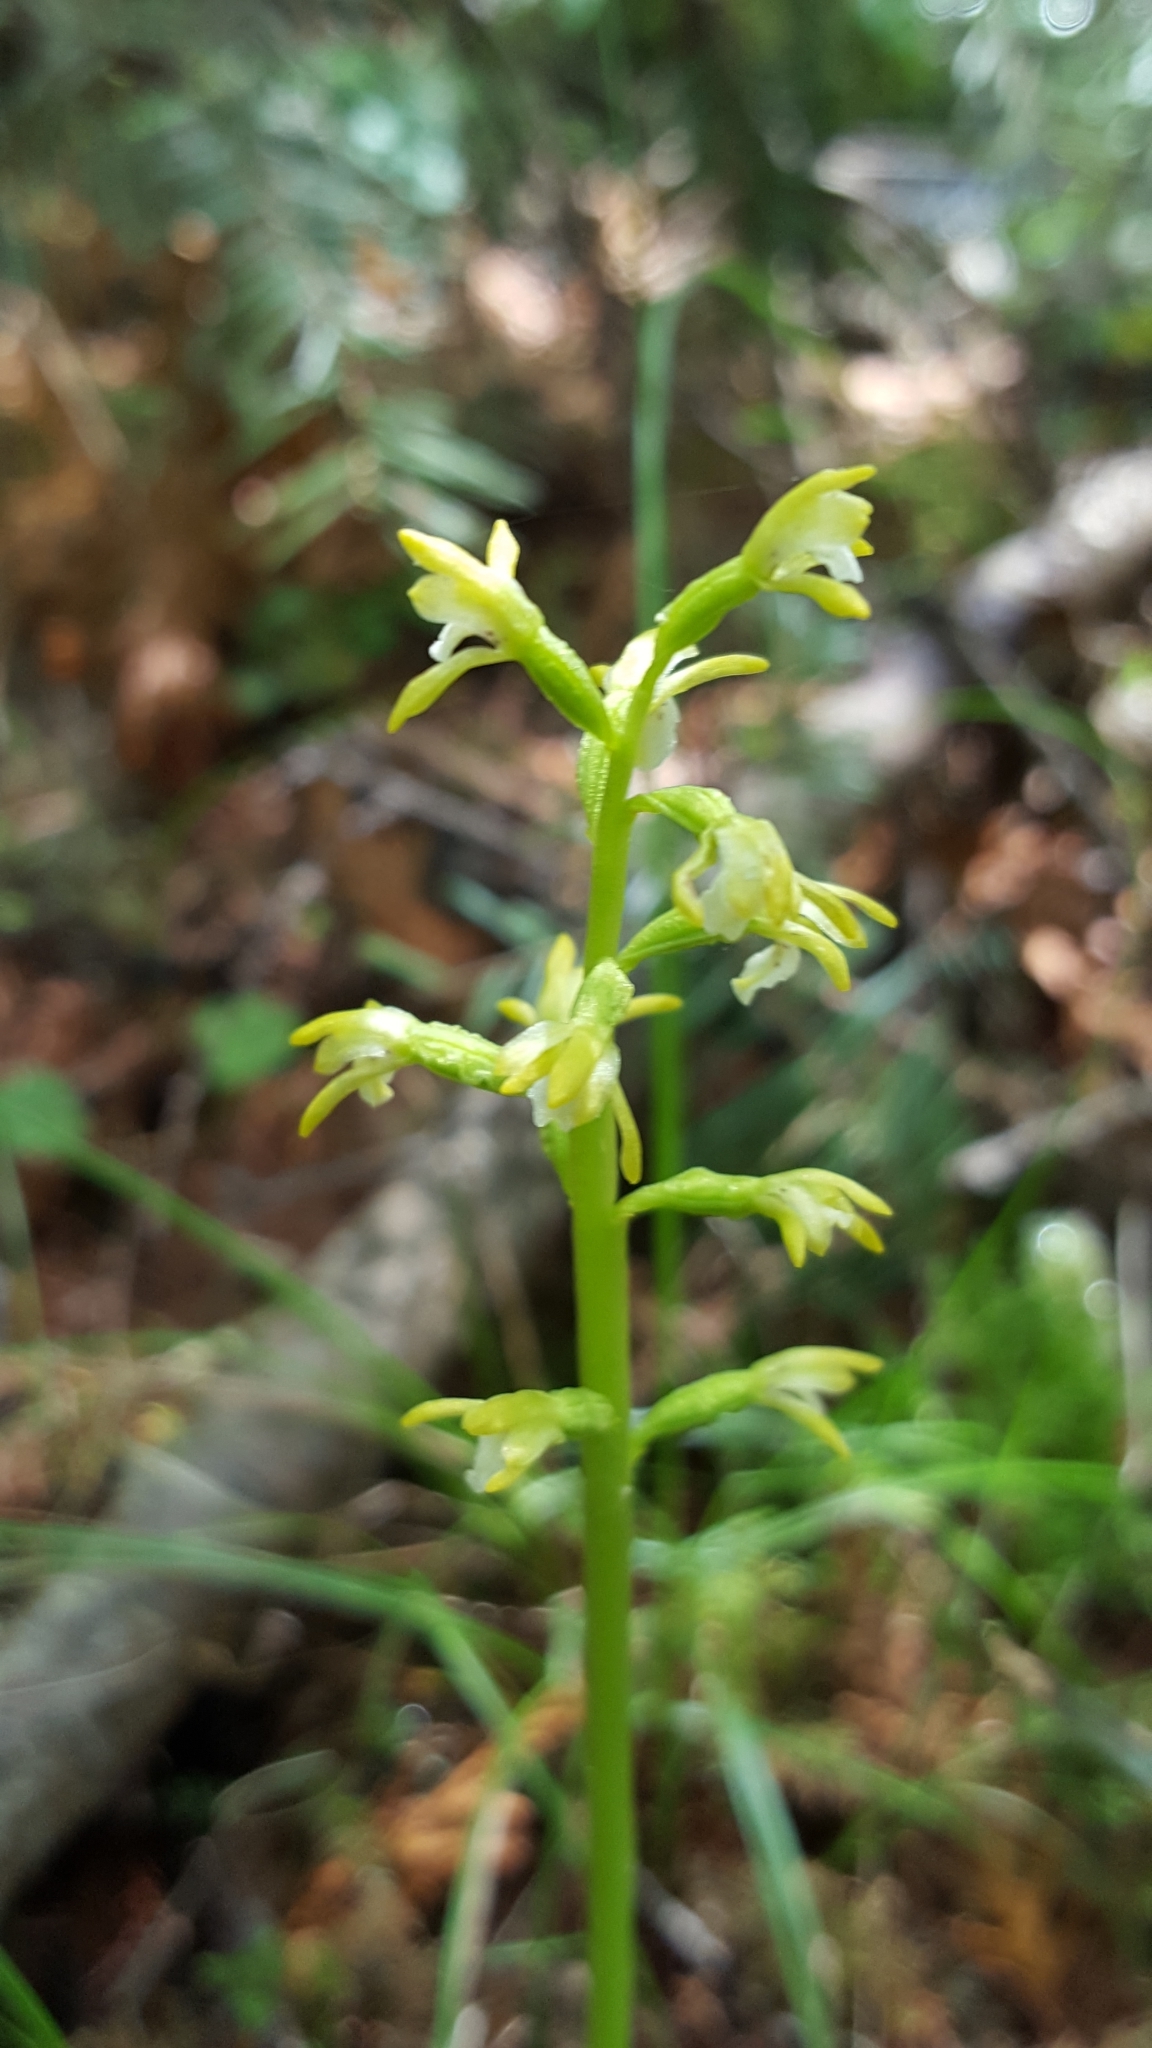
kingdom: Plantae
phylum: Tracheophyta
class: Liliopsida
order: Asparagales
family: Orchidaceae
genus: Corallorhiza
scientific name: Corallorhiza trifida
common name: Yellow coralroot
